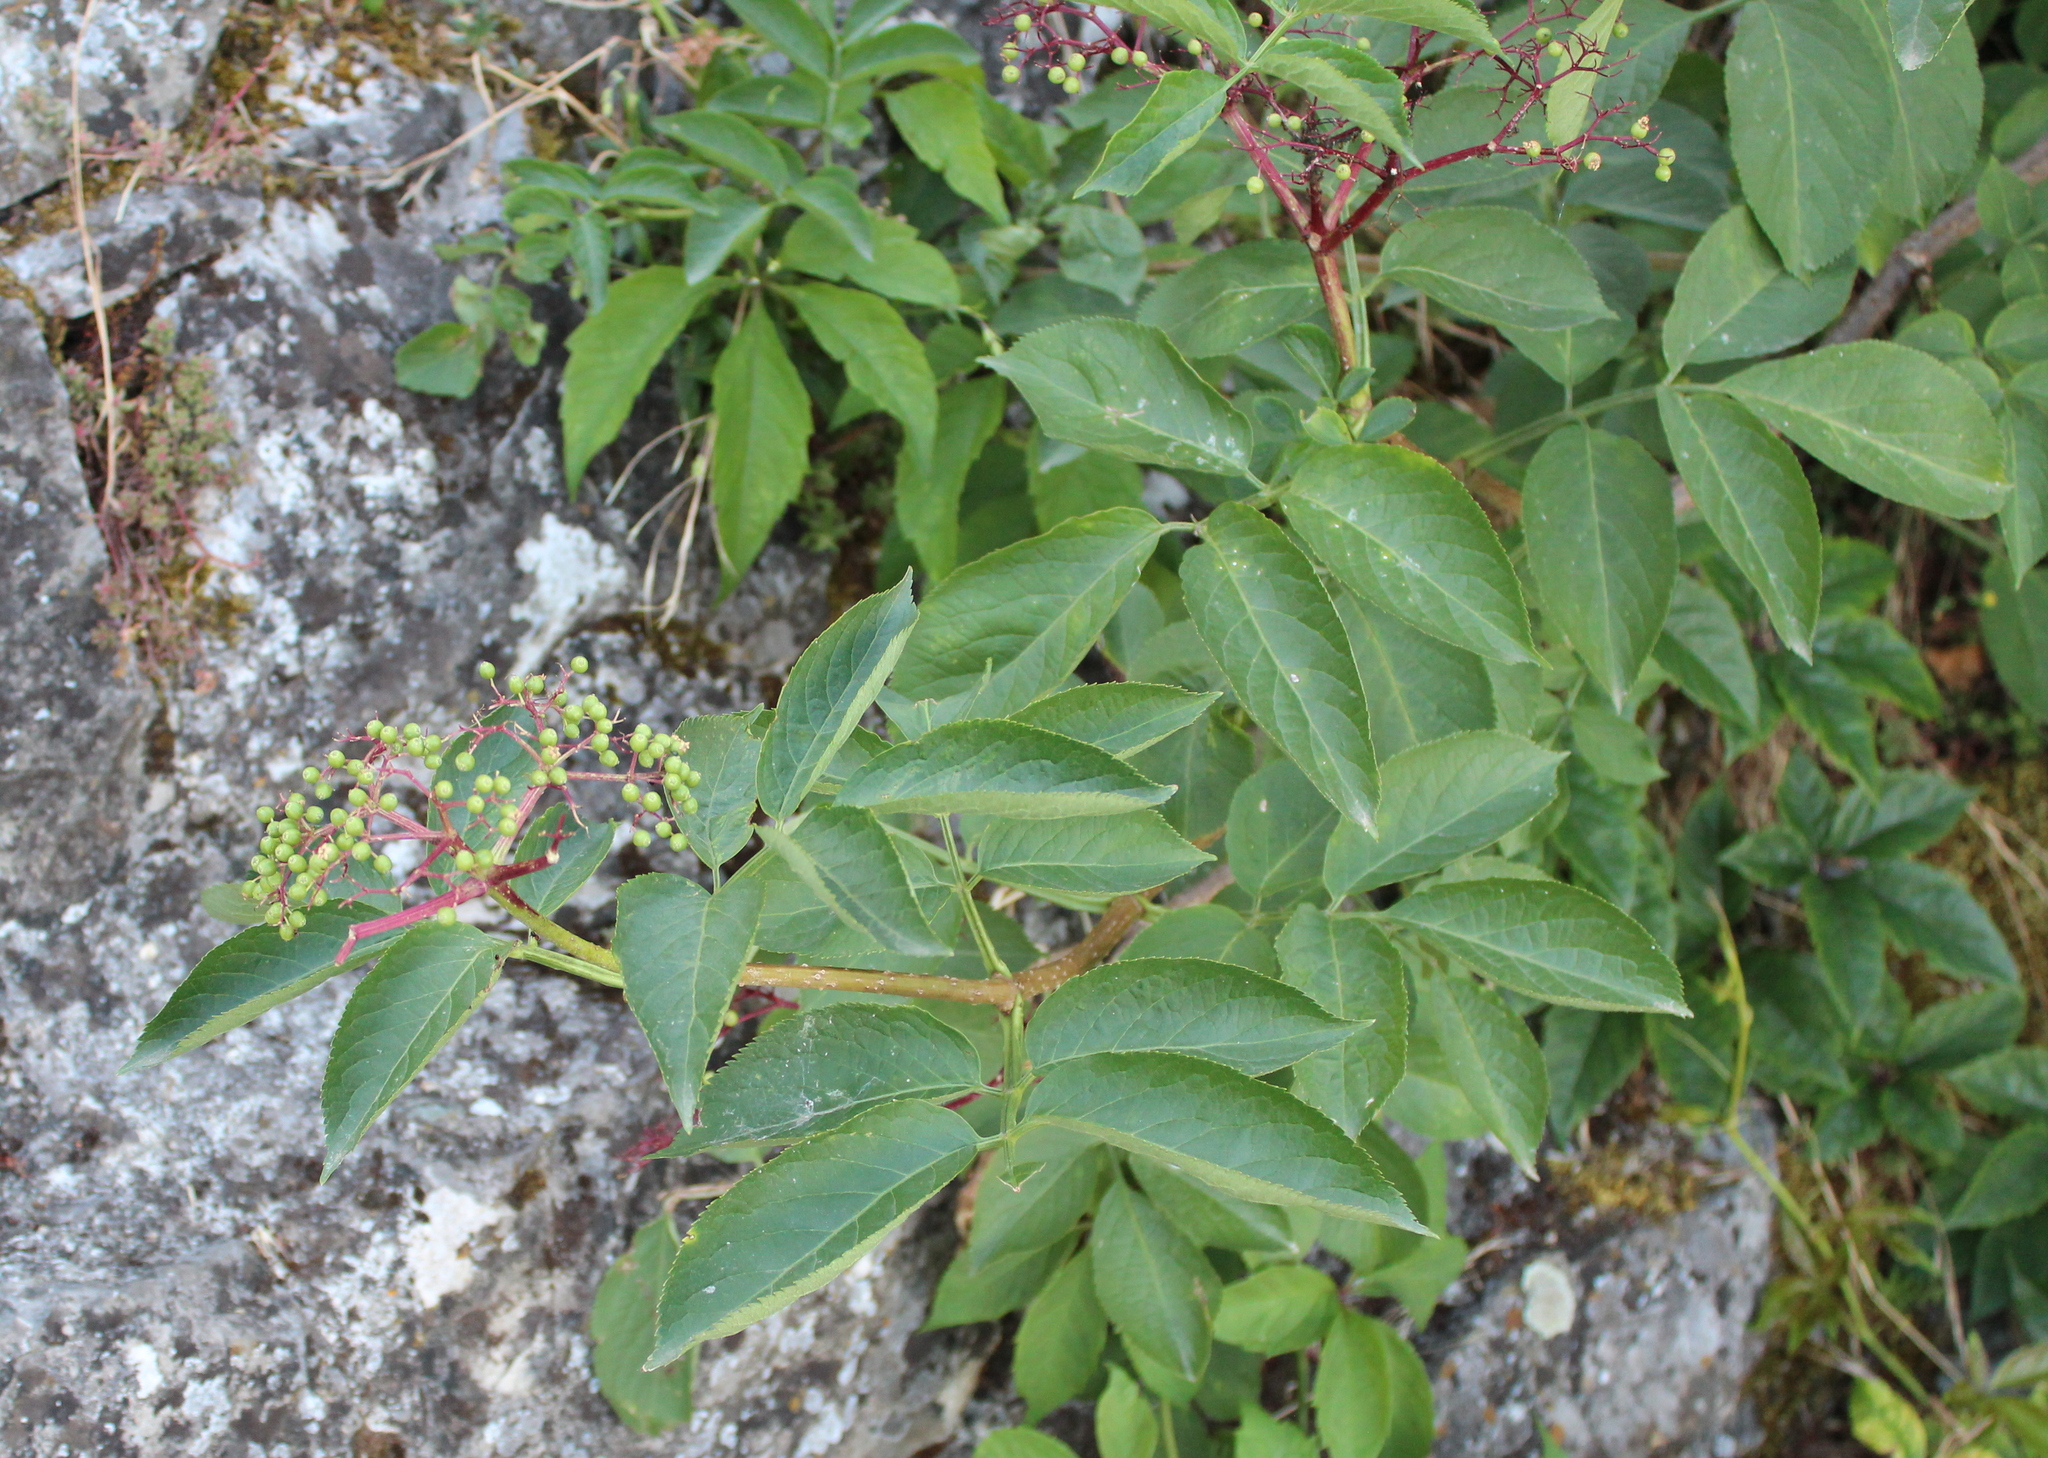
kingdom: Plantae
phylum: Tracheophyta
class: Magnoliopsida
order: Dipsacales
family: Viburnaceae
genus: Sambucus
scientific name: Sambucus nigra
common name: Elder
